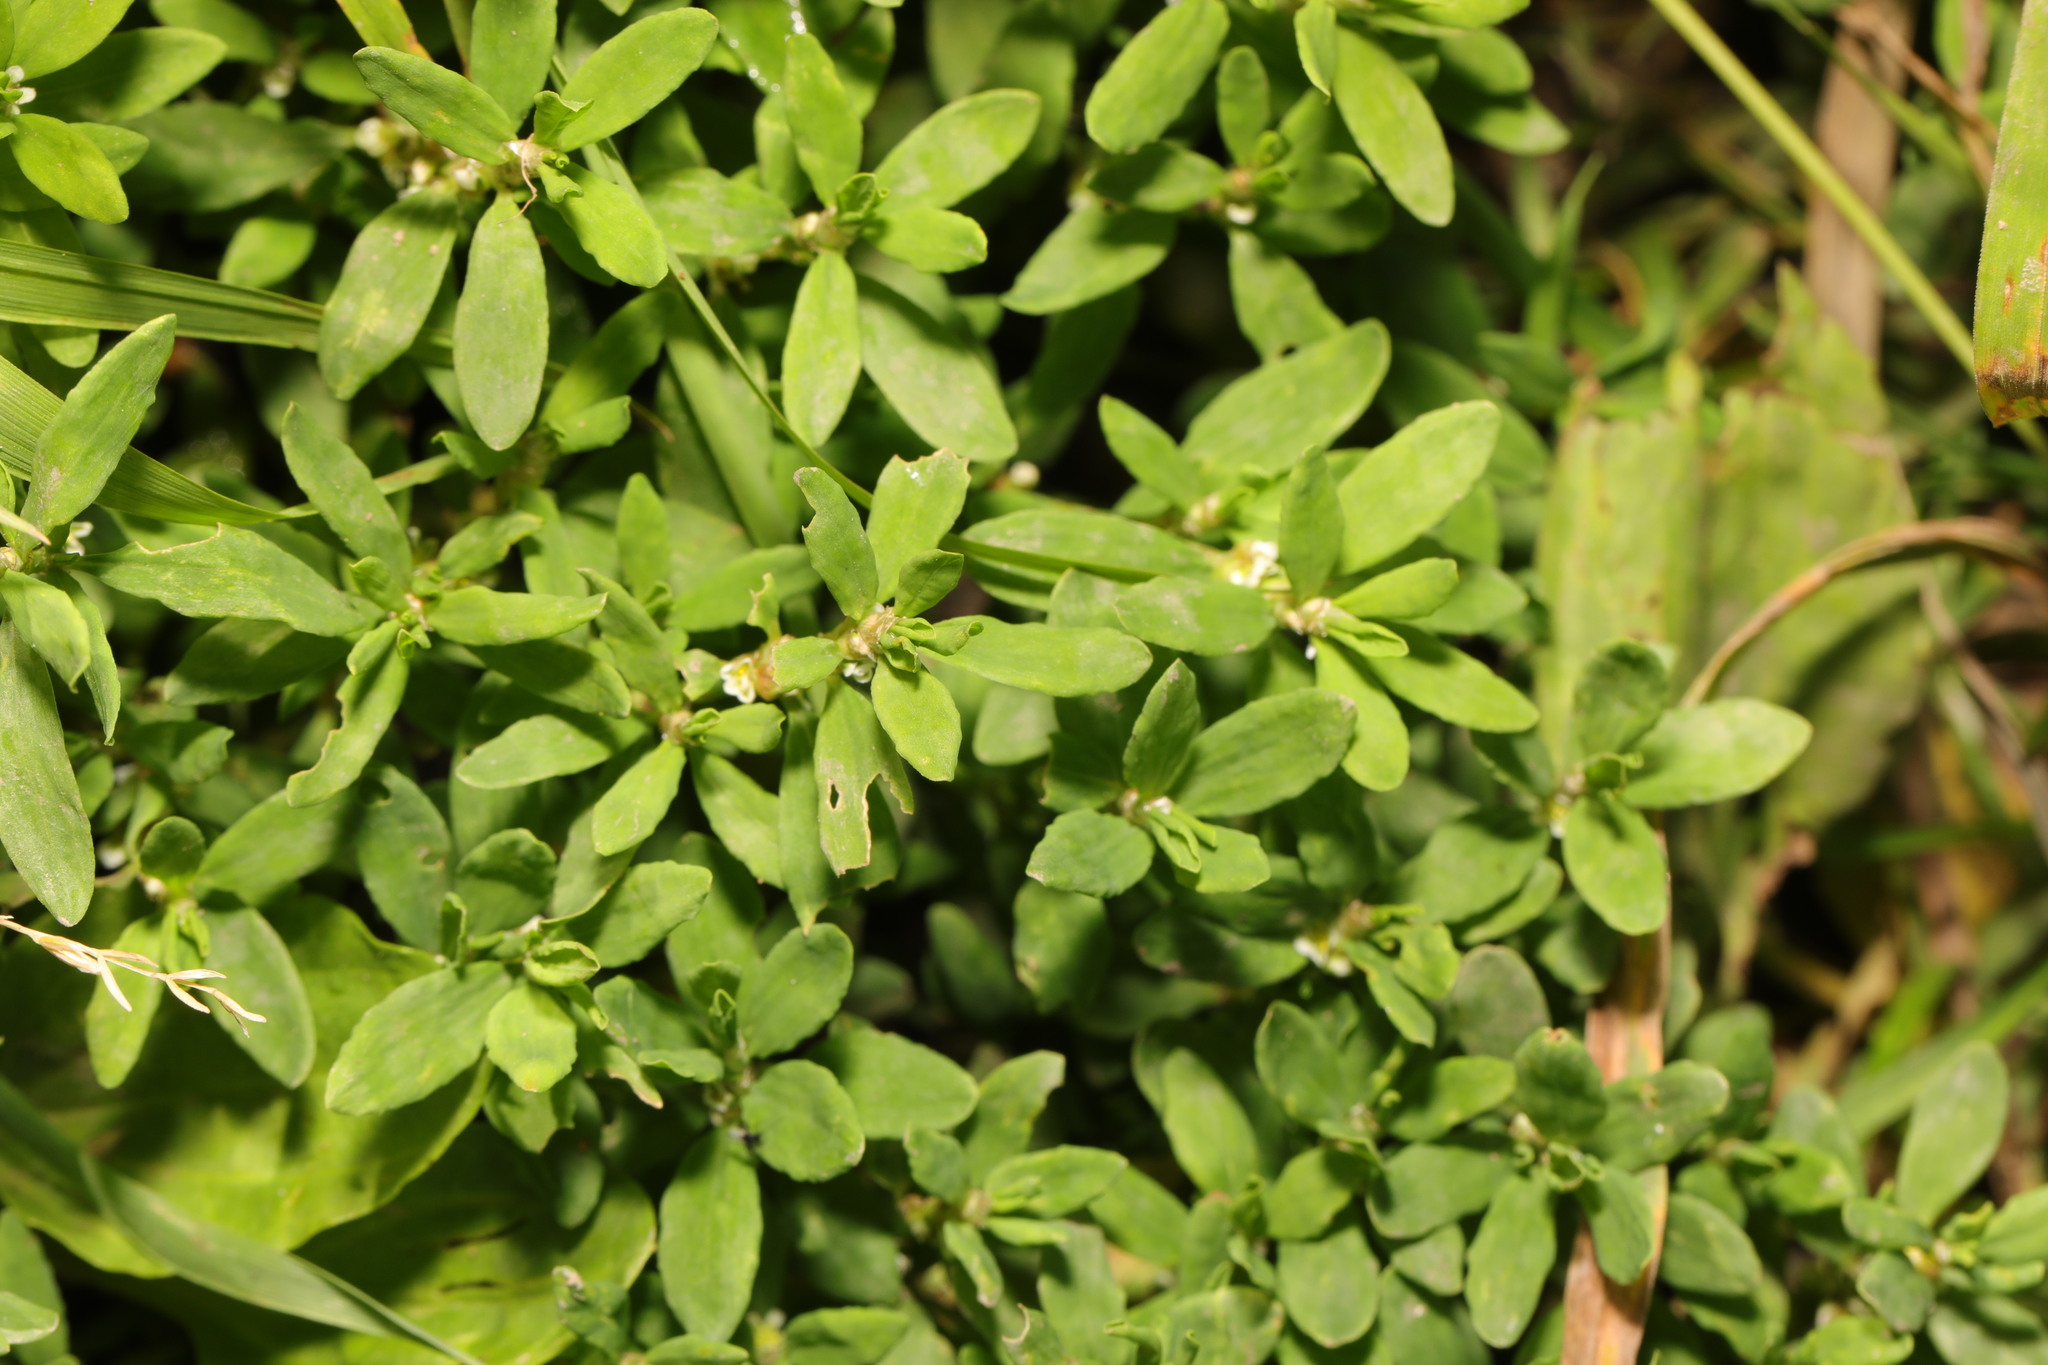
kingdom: Plantae
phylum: Tracheophyta
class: Magnoliopsida
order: Caryophyllales
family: Polygonaceae
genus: Polygonum
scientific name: Polygonum aviculare
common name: Prostrate knotweed
